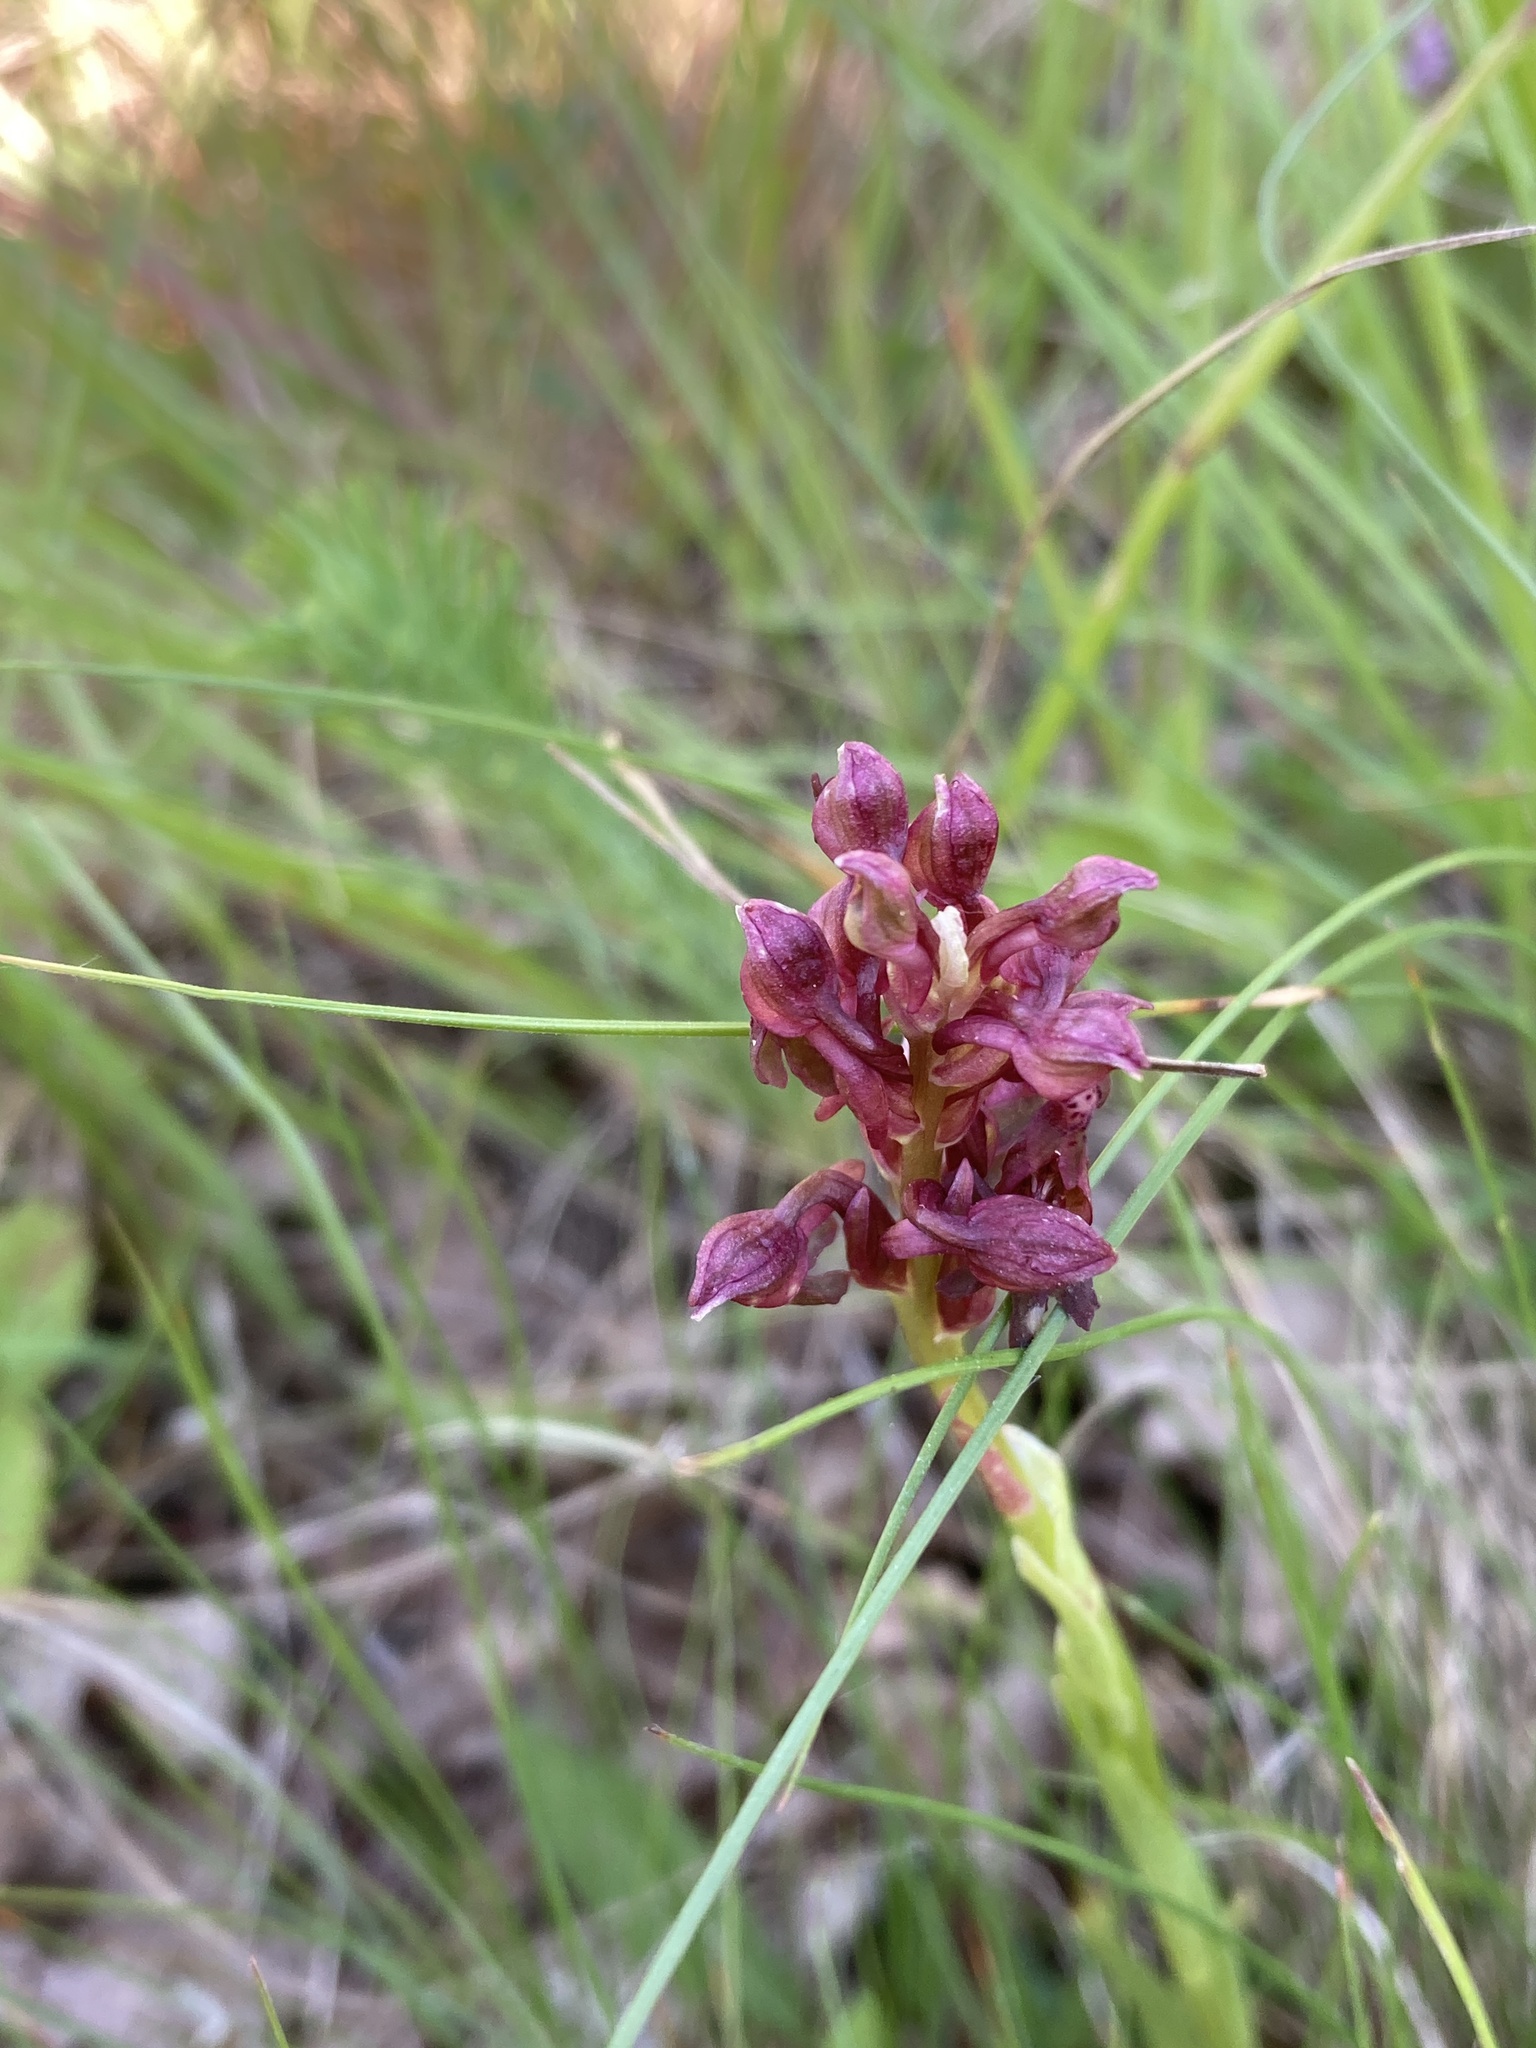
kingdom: Plantae
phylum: Tracheophyta
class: Liliopsida
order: Asparagales
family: Orchidaceae
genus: Anacamptis
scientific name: Anacamptis coriophora
